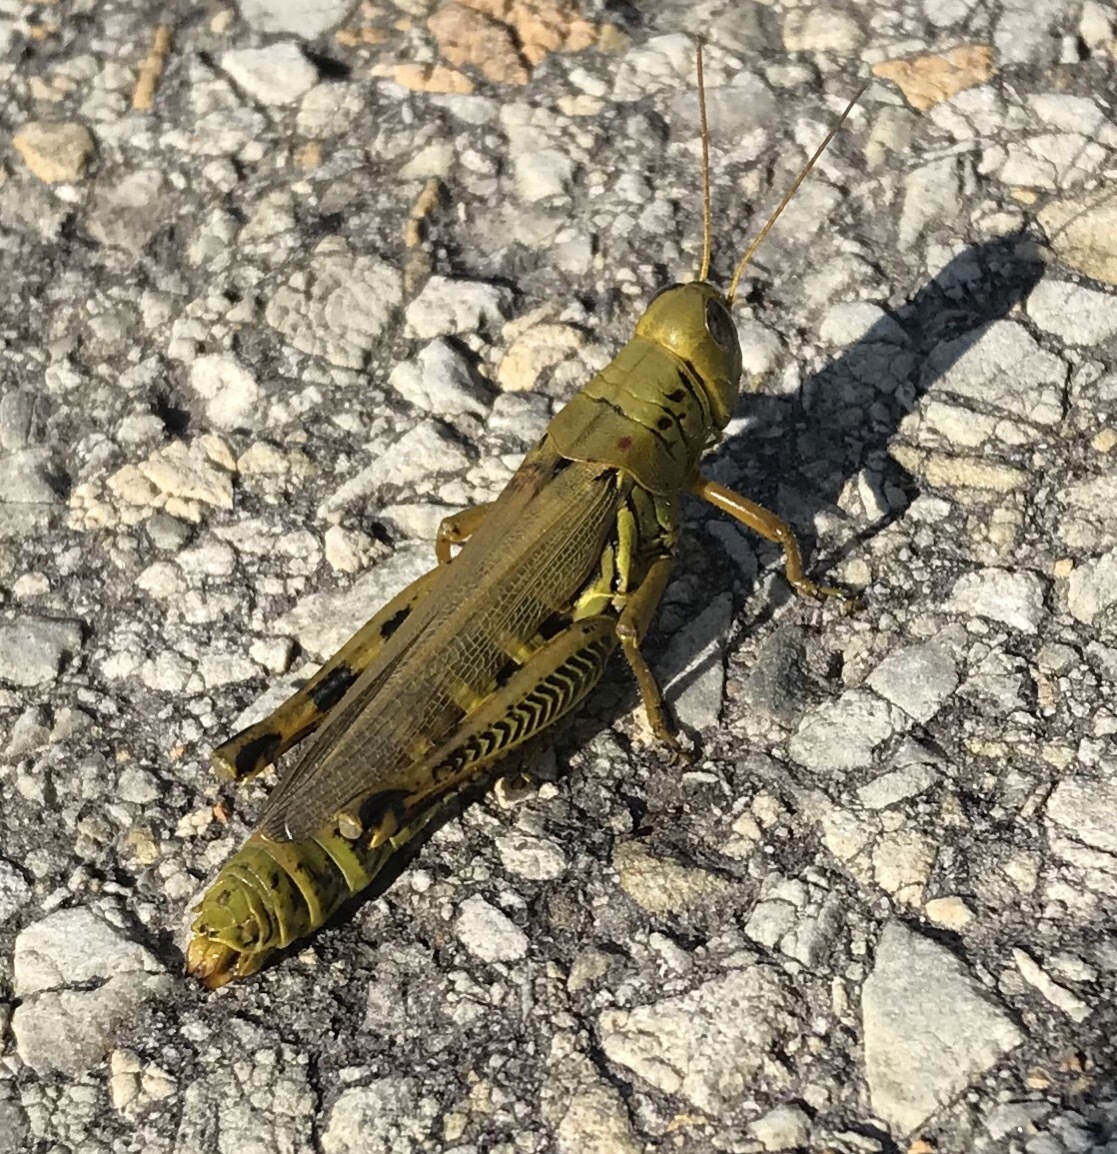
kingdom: Animalia
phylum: Arthropoda
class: Insecta
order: Orthoptera
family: Acrididae
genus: Melanoplus
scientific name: Melanoplus differentialis
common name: Differential grasshopper
